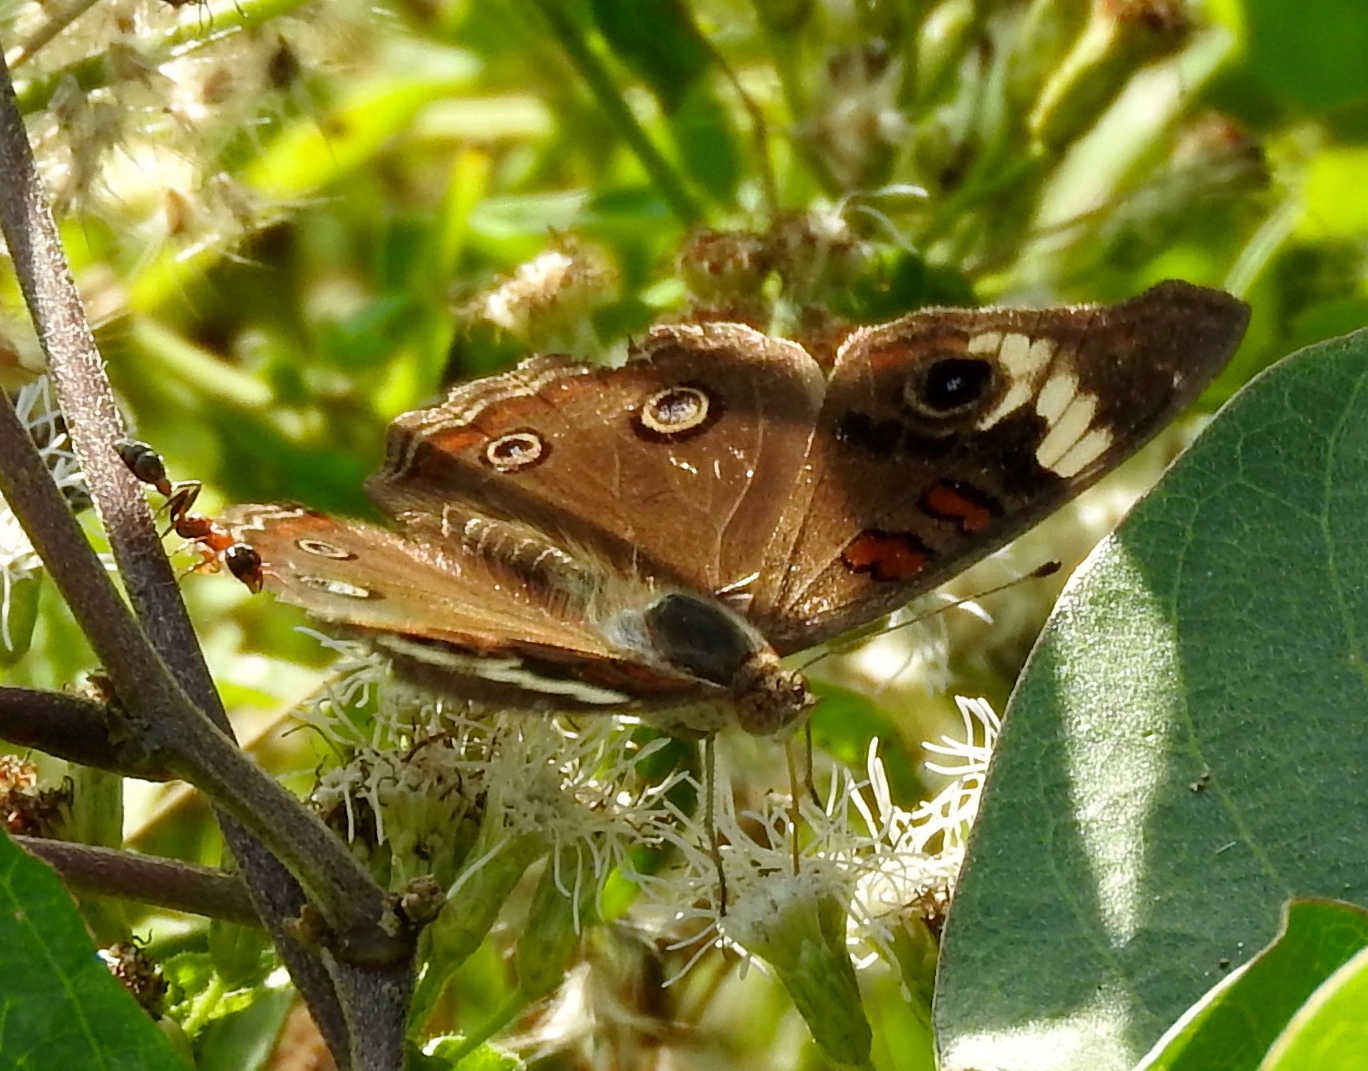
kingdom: Animalia
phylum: Arthropoda
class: Insecta
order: Lepidoptera
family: Nymphalidae
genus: Junonia
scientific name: Junonia
